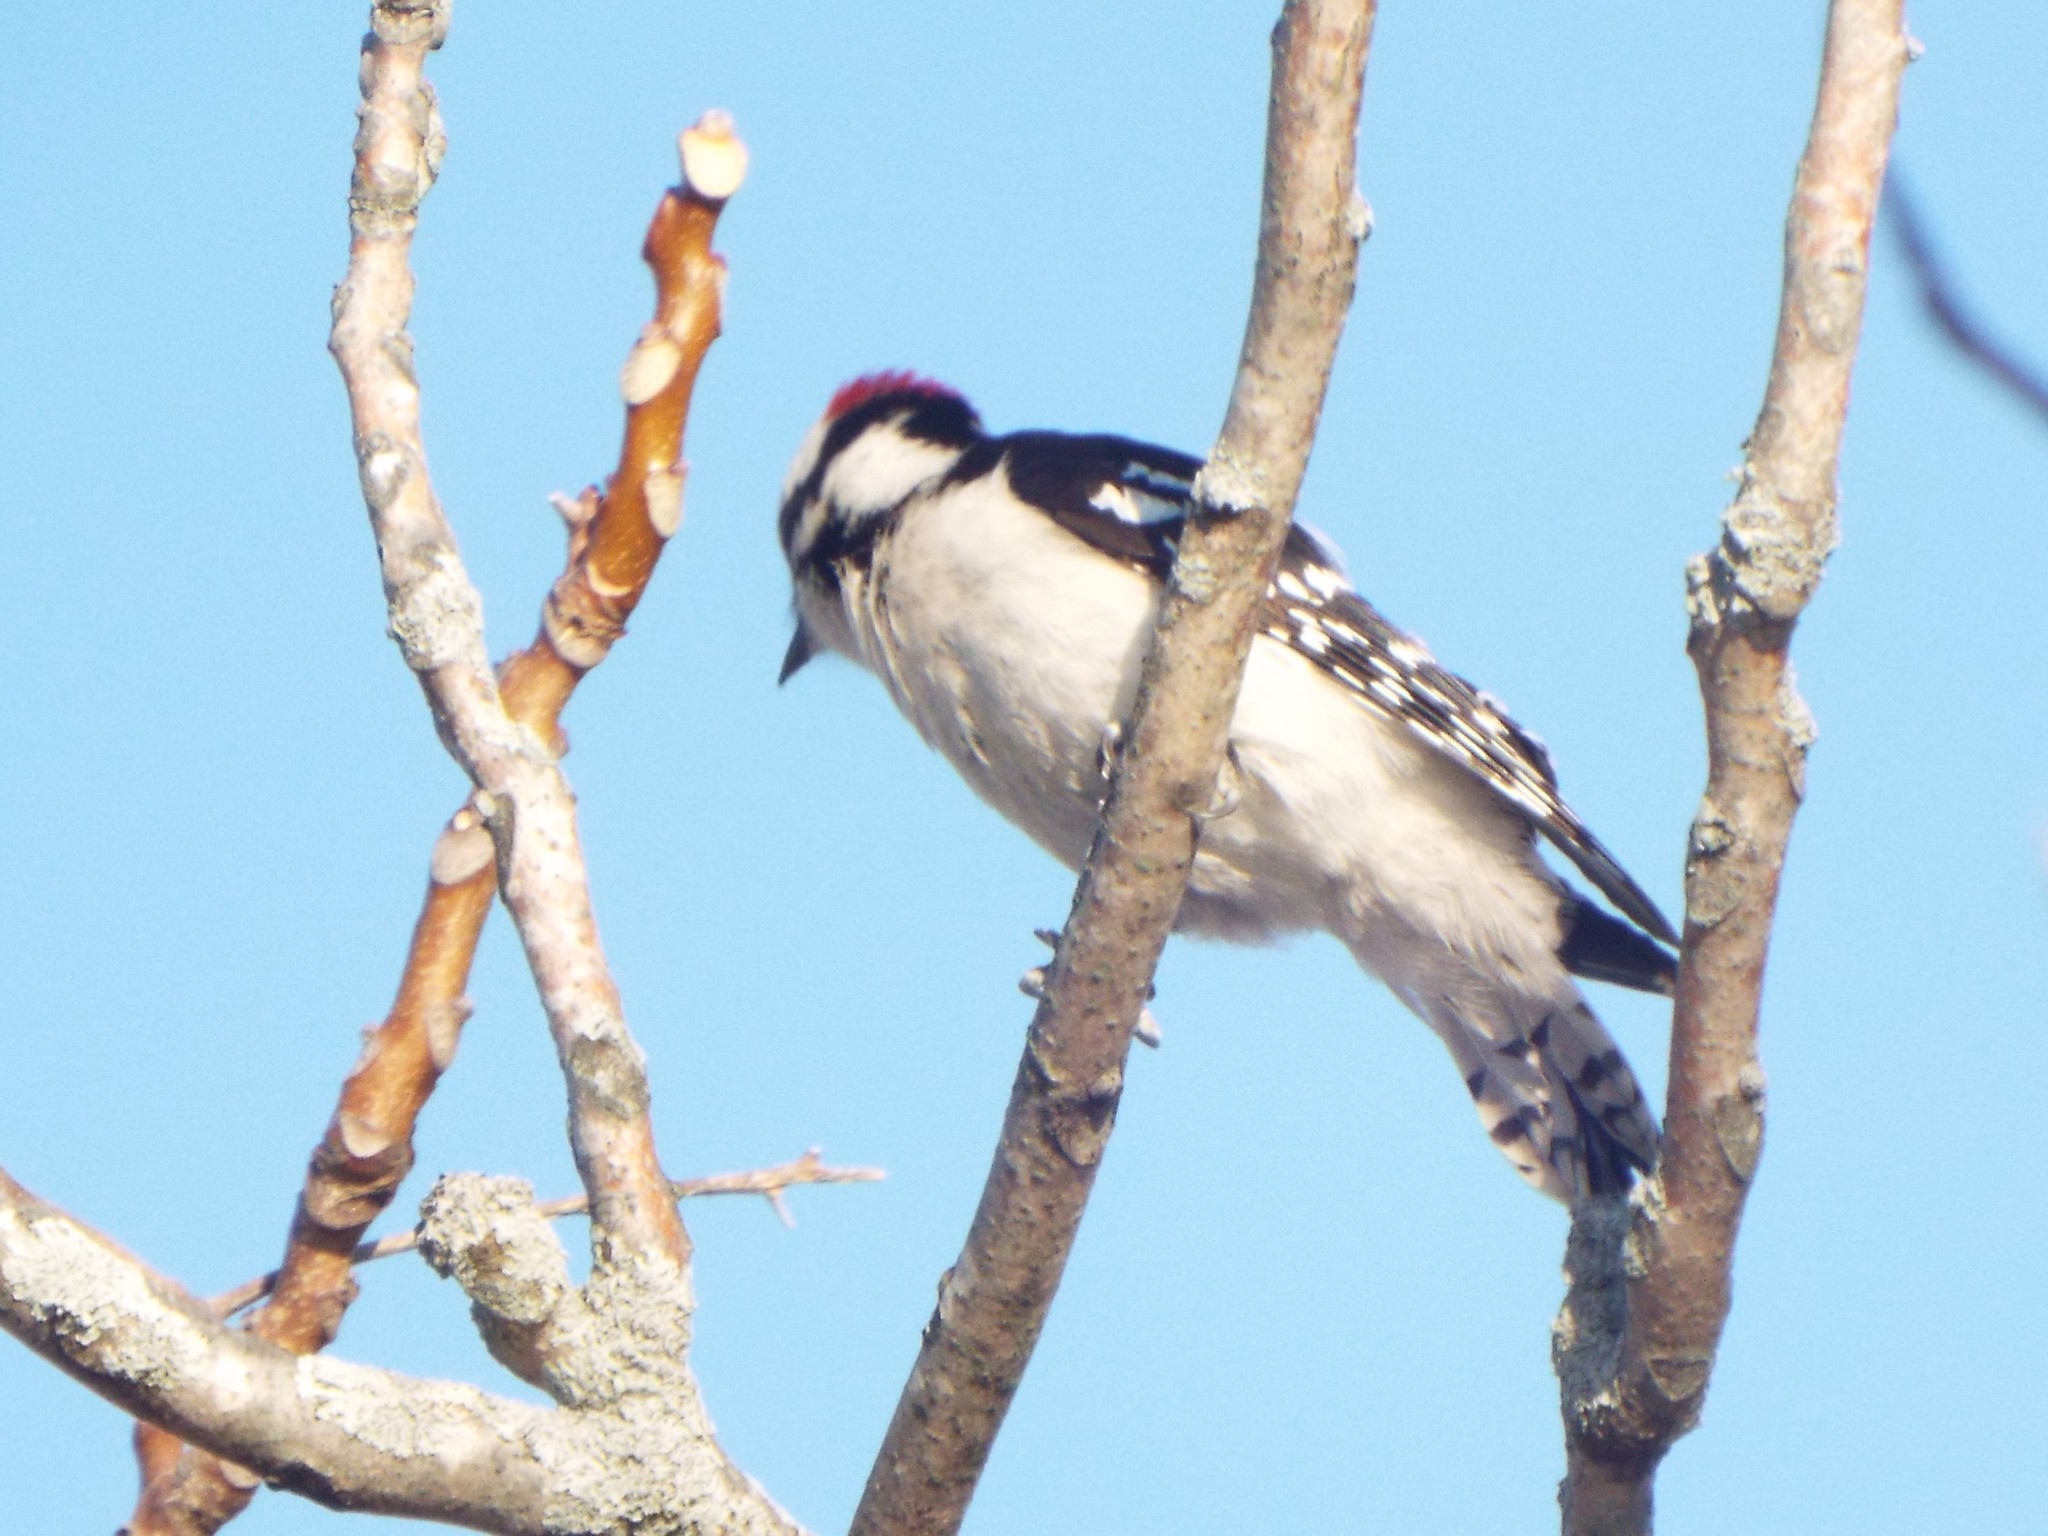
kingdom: Animalia
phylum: Chordata
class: Aves
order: Piciformes
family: Picidae
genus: Dryobates
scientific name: Dryobates pubescens
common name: Downy woodpecker
